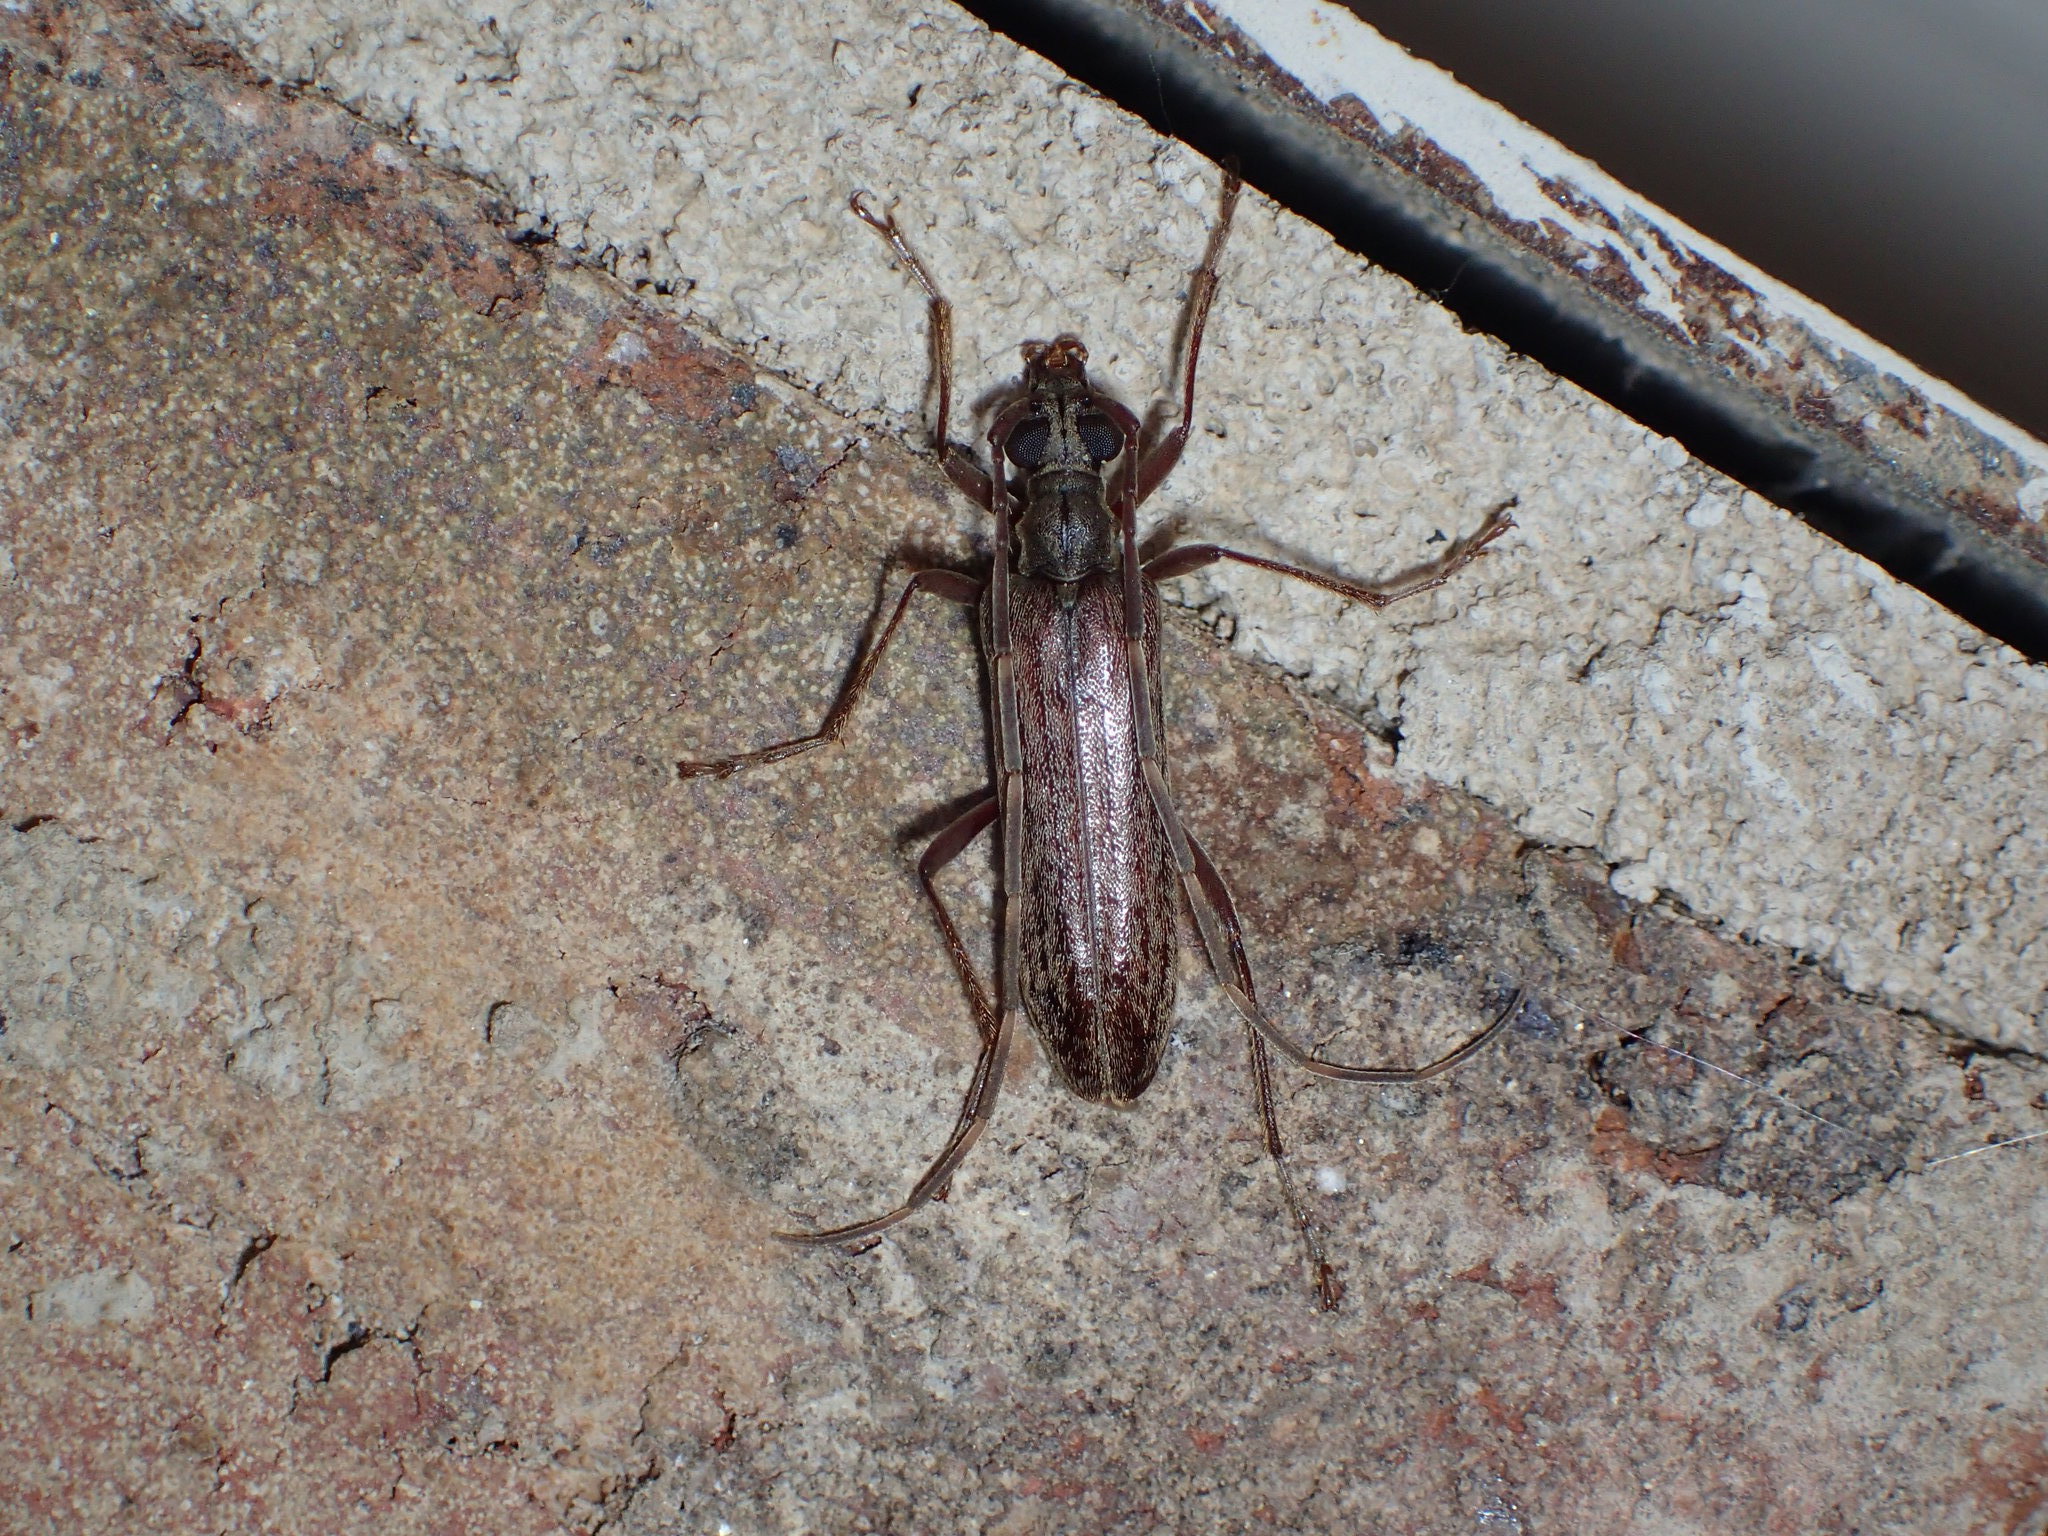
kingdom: Animalia
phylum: Arthropoda
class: Insecta
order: Coleoptera
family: Cerambycidae
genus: Centrodera
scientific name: Centrodera sublineata
